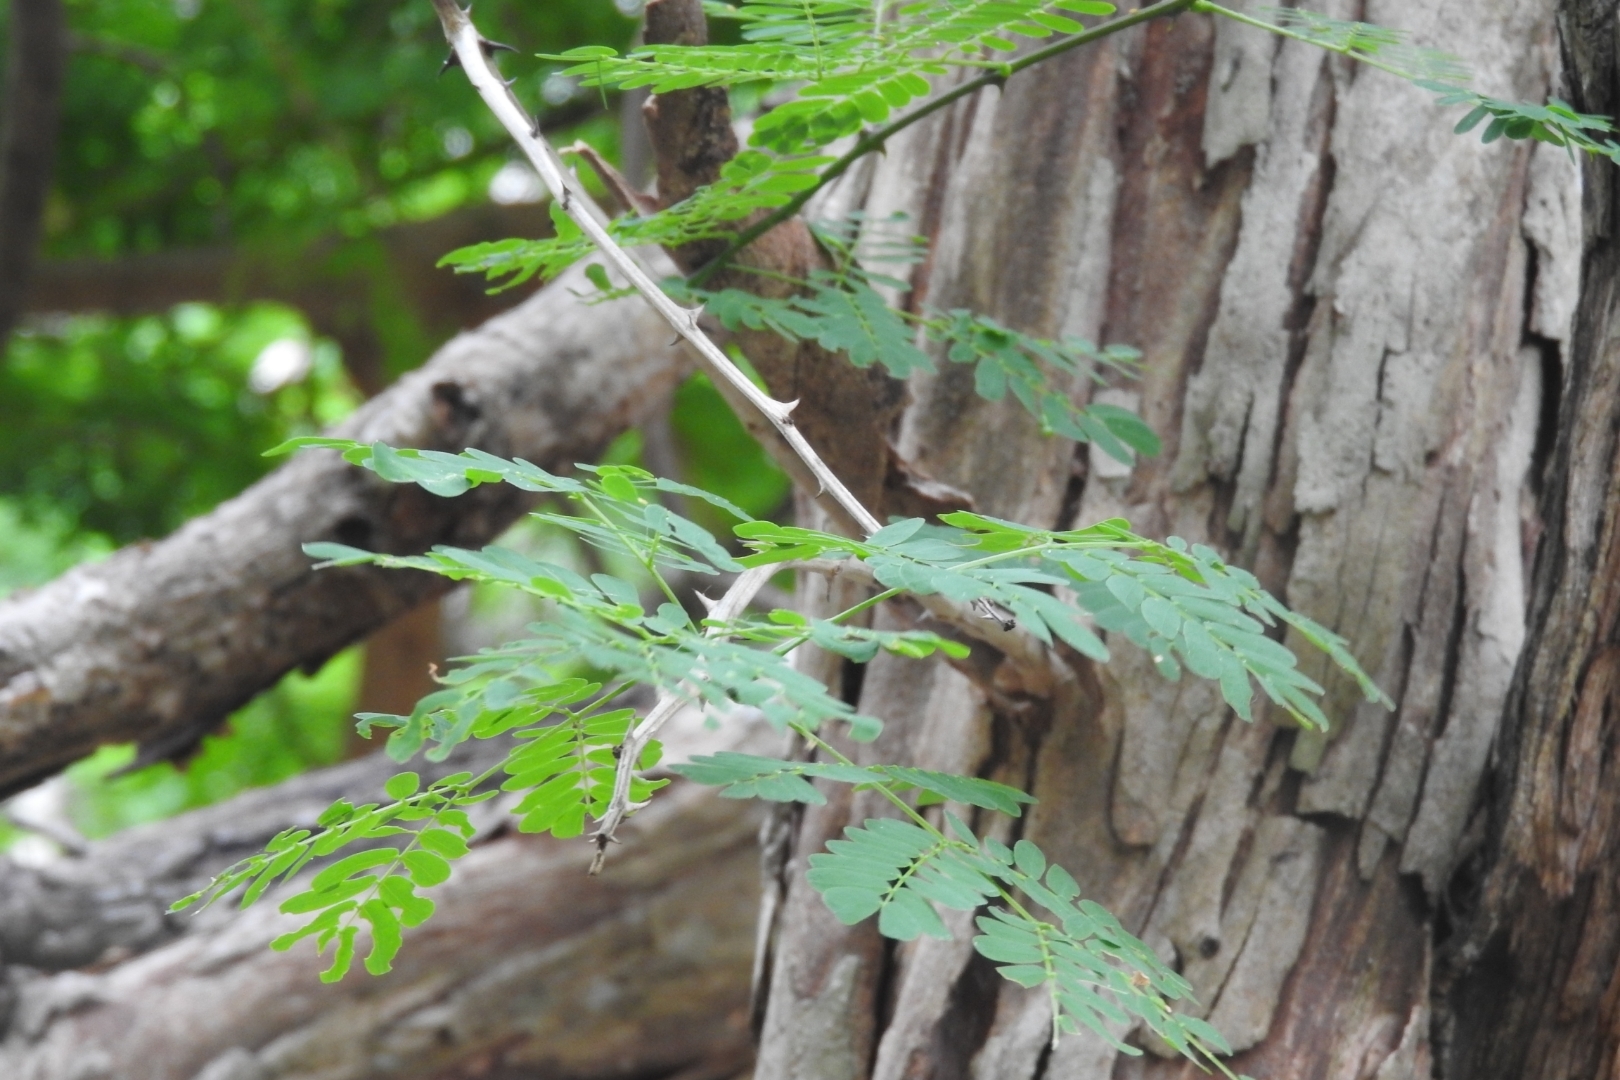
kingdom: Plantae
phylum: Tracheophyta
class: Magnoliopsida
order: Fabales
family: Fabaceae
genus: Senegalia
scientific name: Senegalia gaumeri
